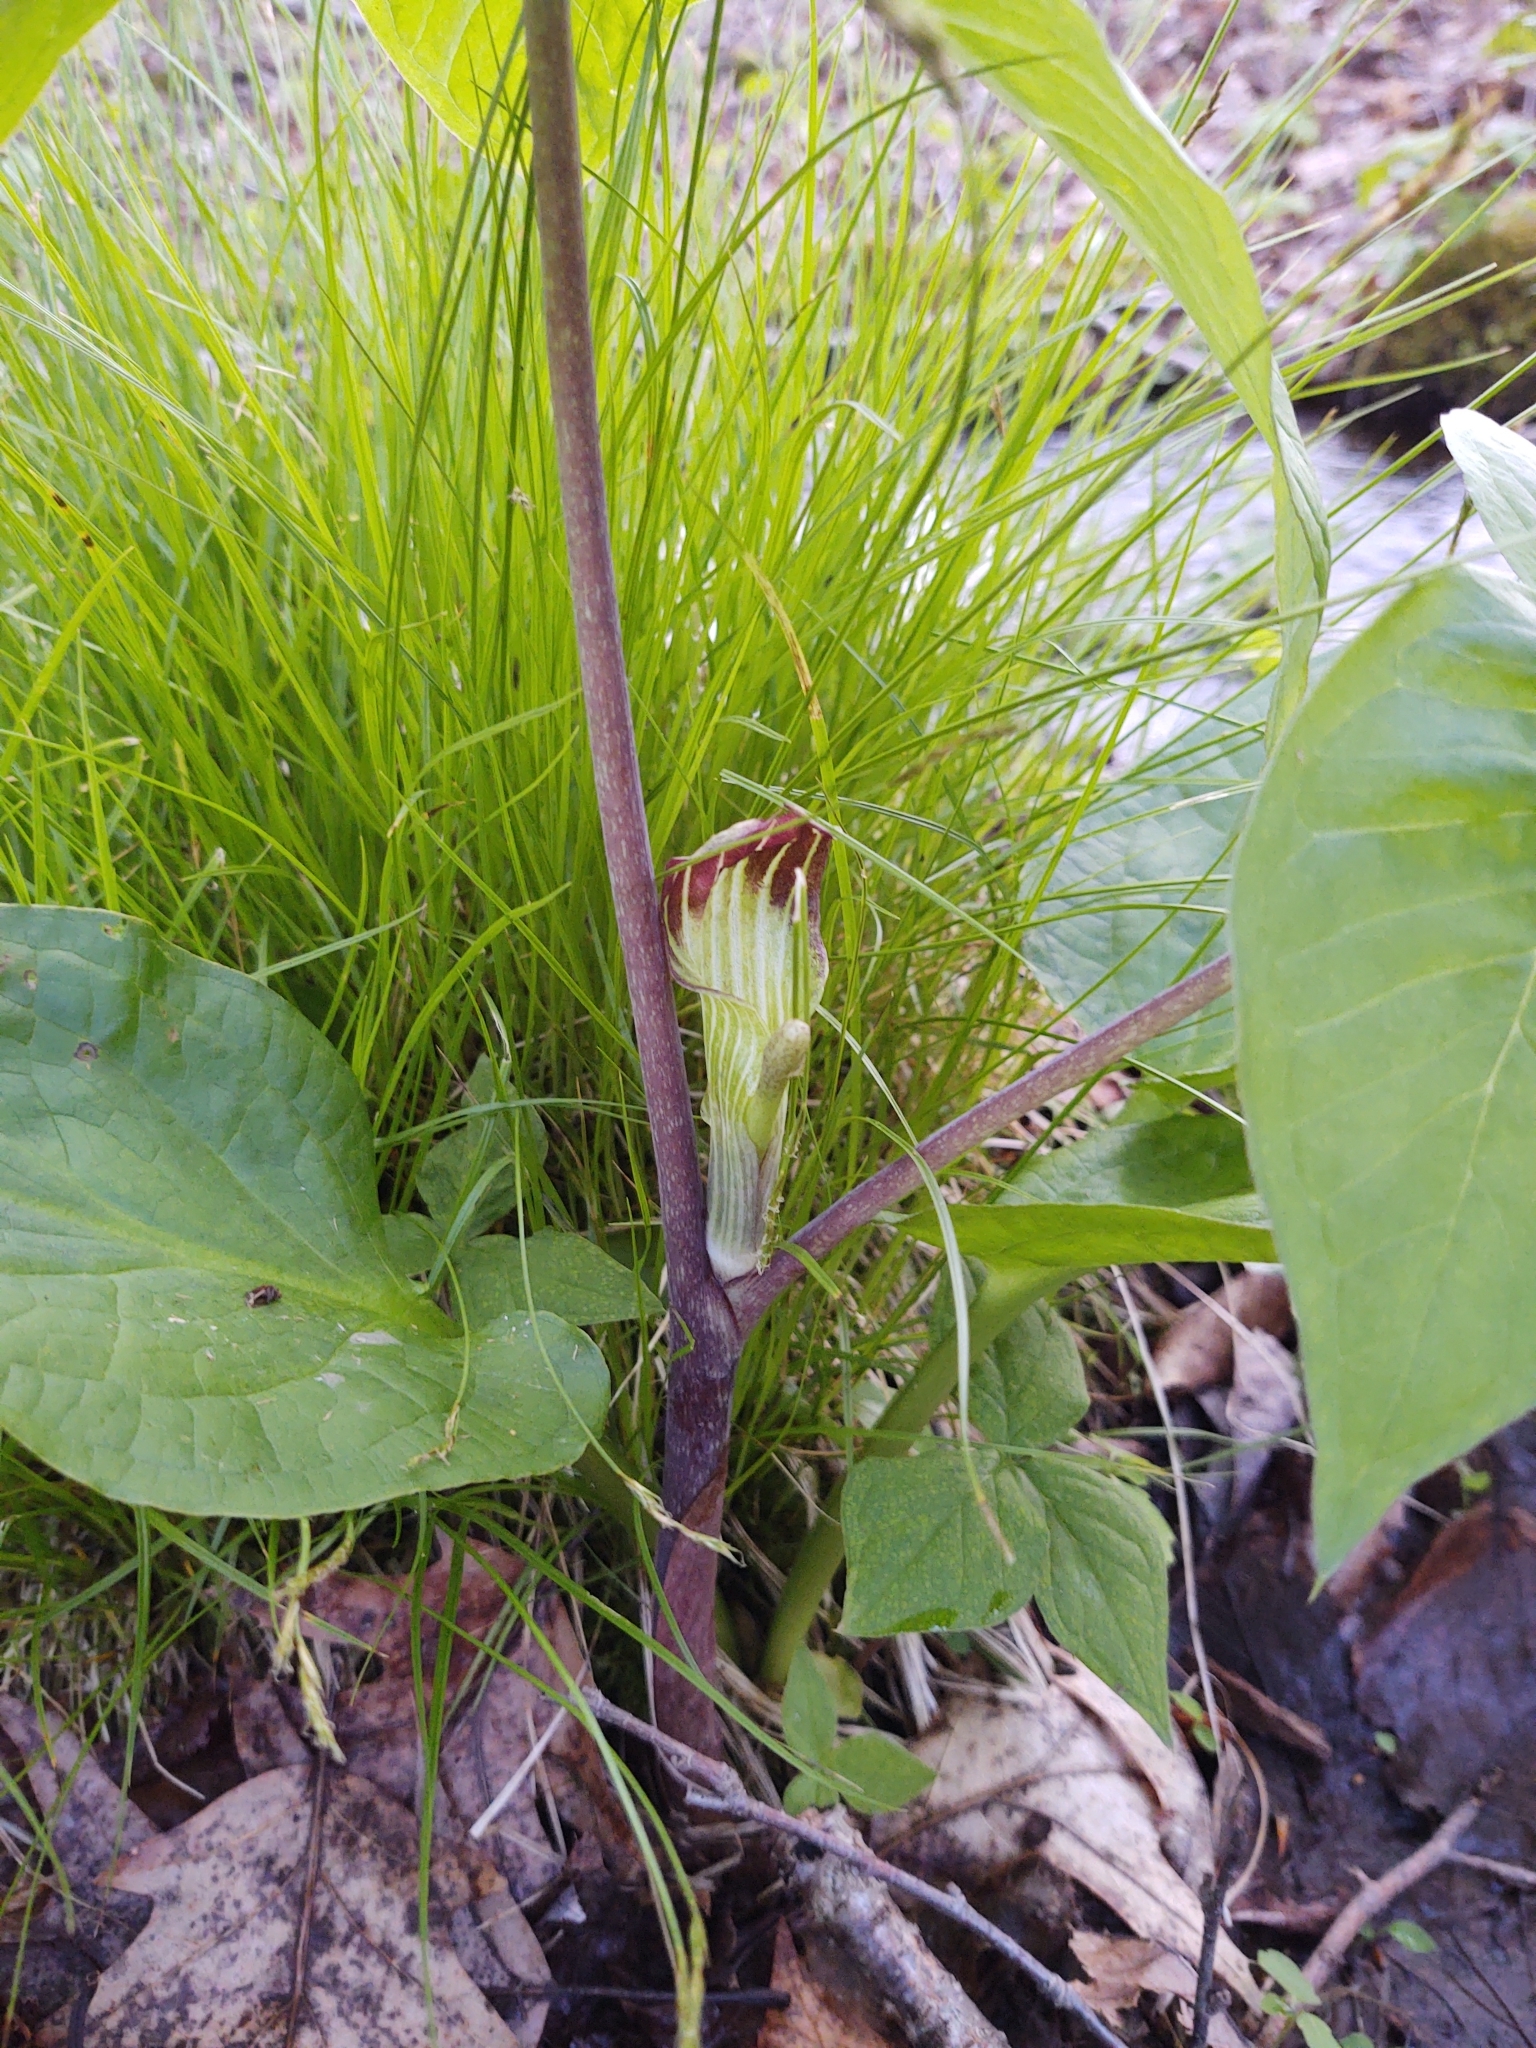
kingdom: Plantae
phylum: Tracheophyta
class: Liliopsida
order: Alismatales
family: Araceae
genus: Arisaema
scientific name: Arisaema triphyllum
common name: Jack-in-the-pulpit
